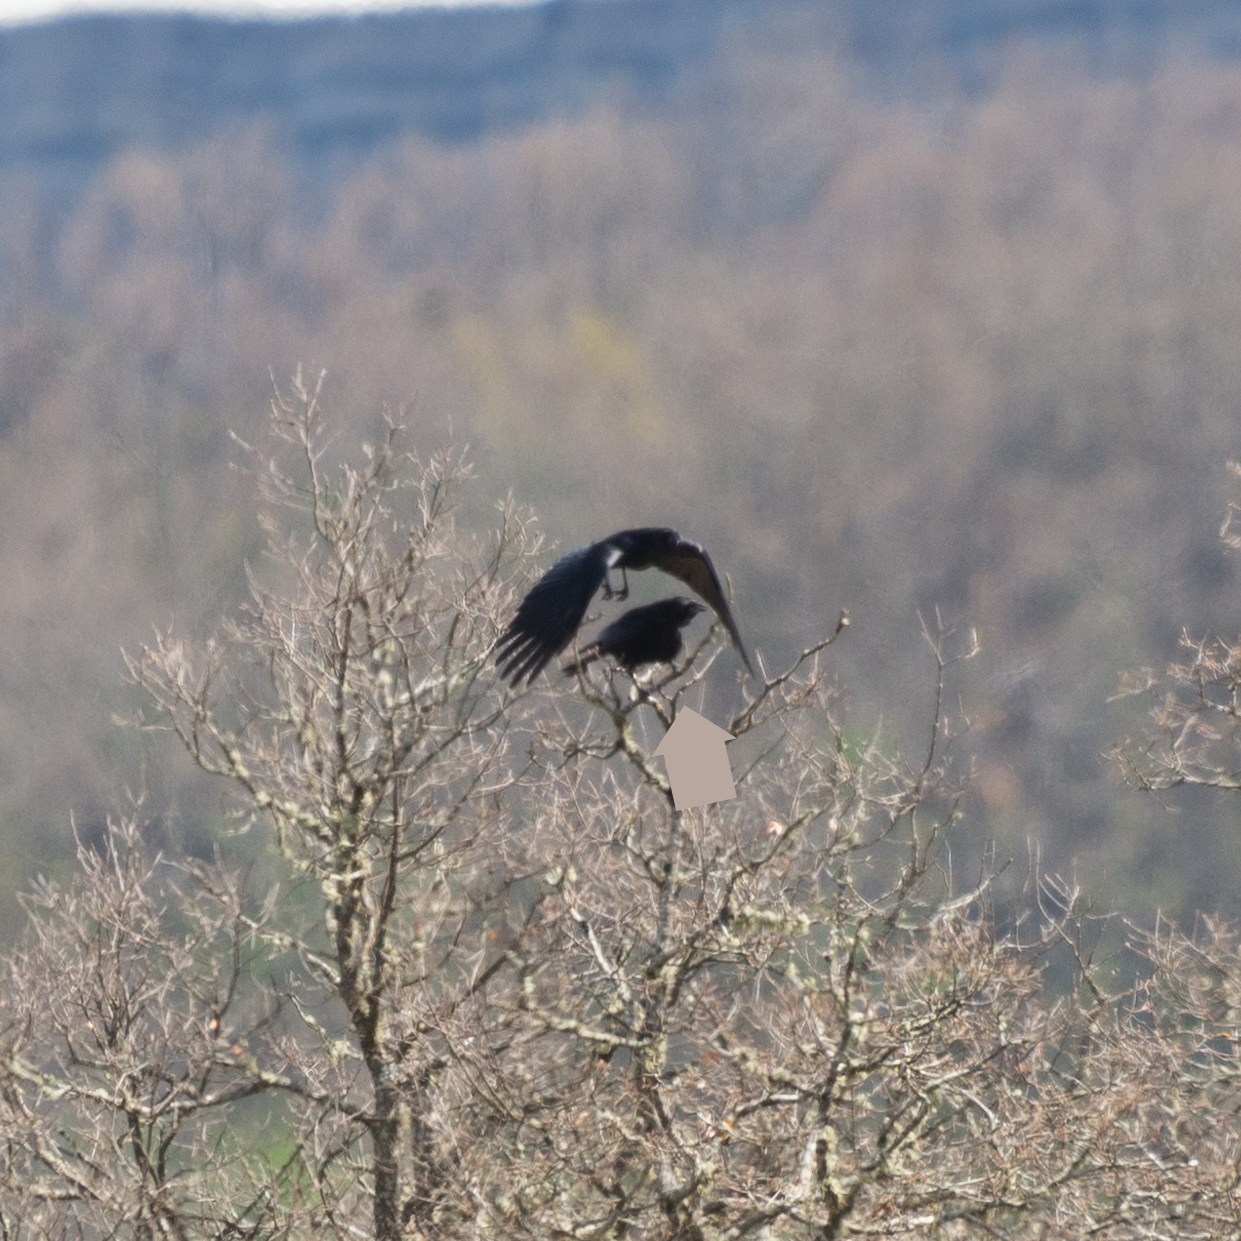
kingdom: Animalia
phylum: Chordata
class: Aves
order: Passeriformes
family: Corvidae
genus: Corvus
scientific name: Corvus corone
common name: Carrion crow
